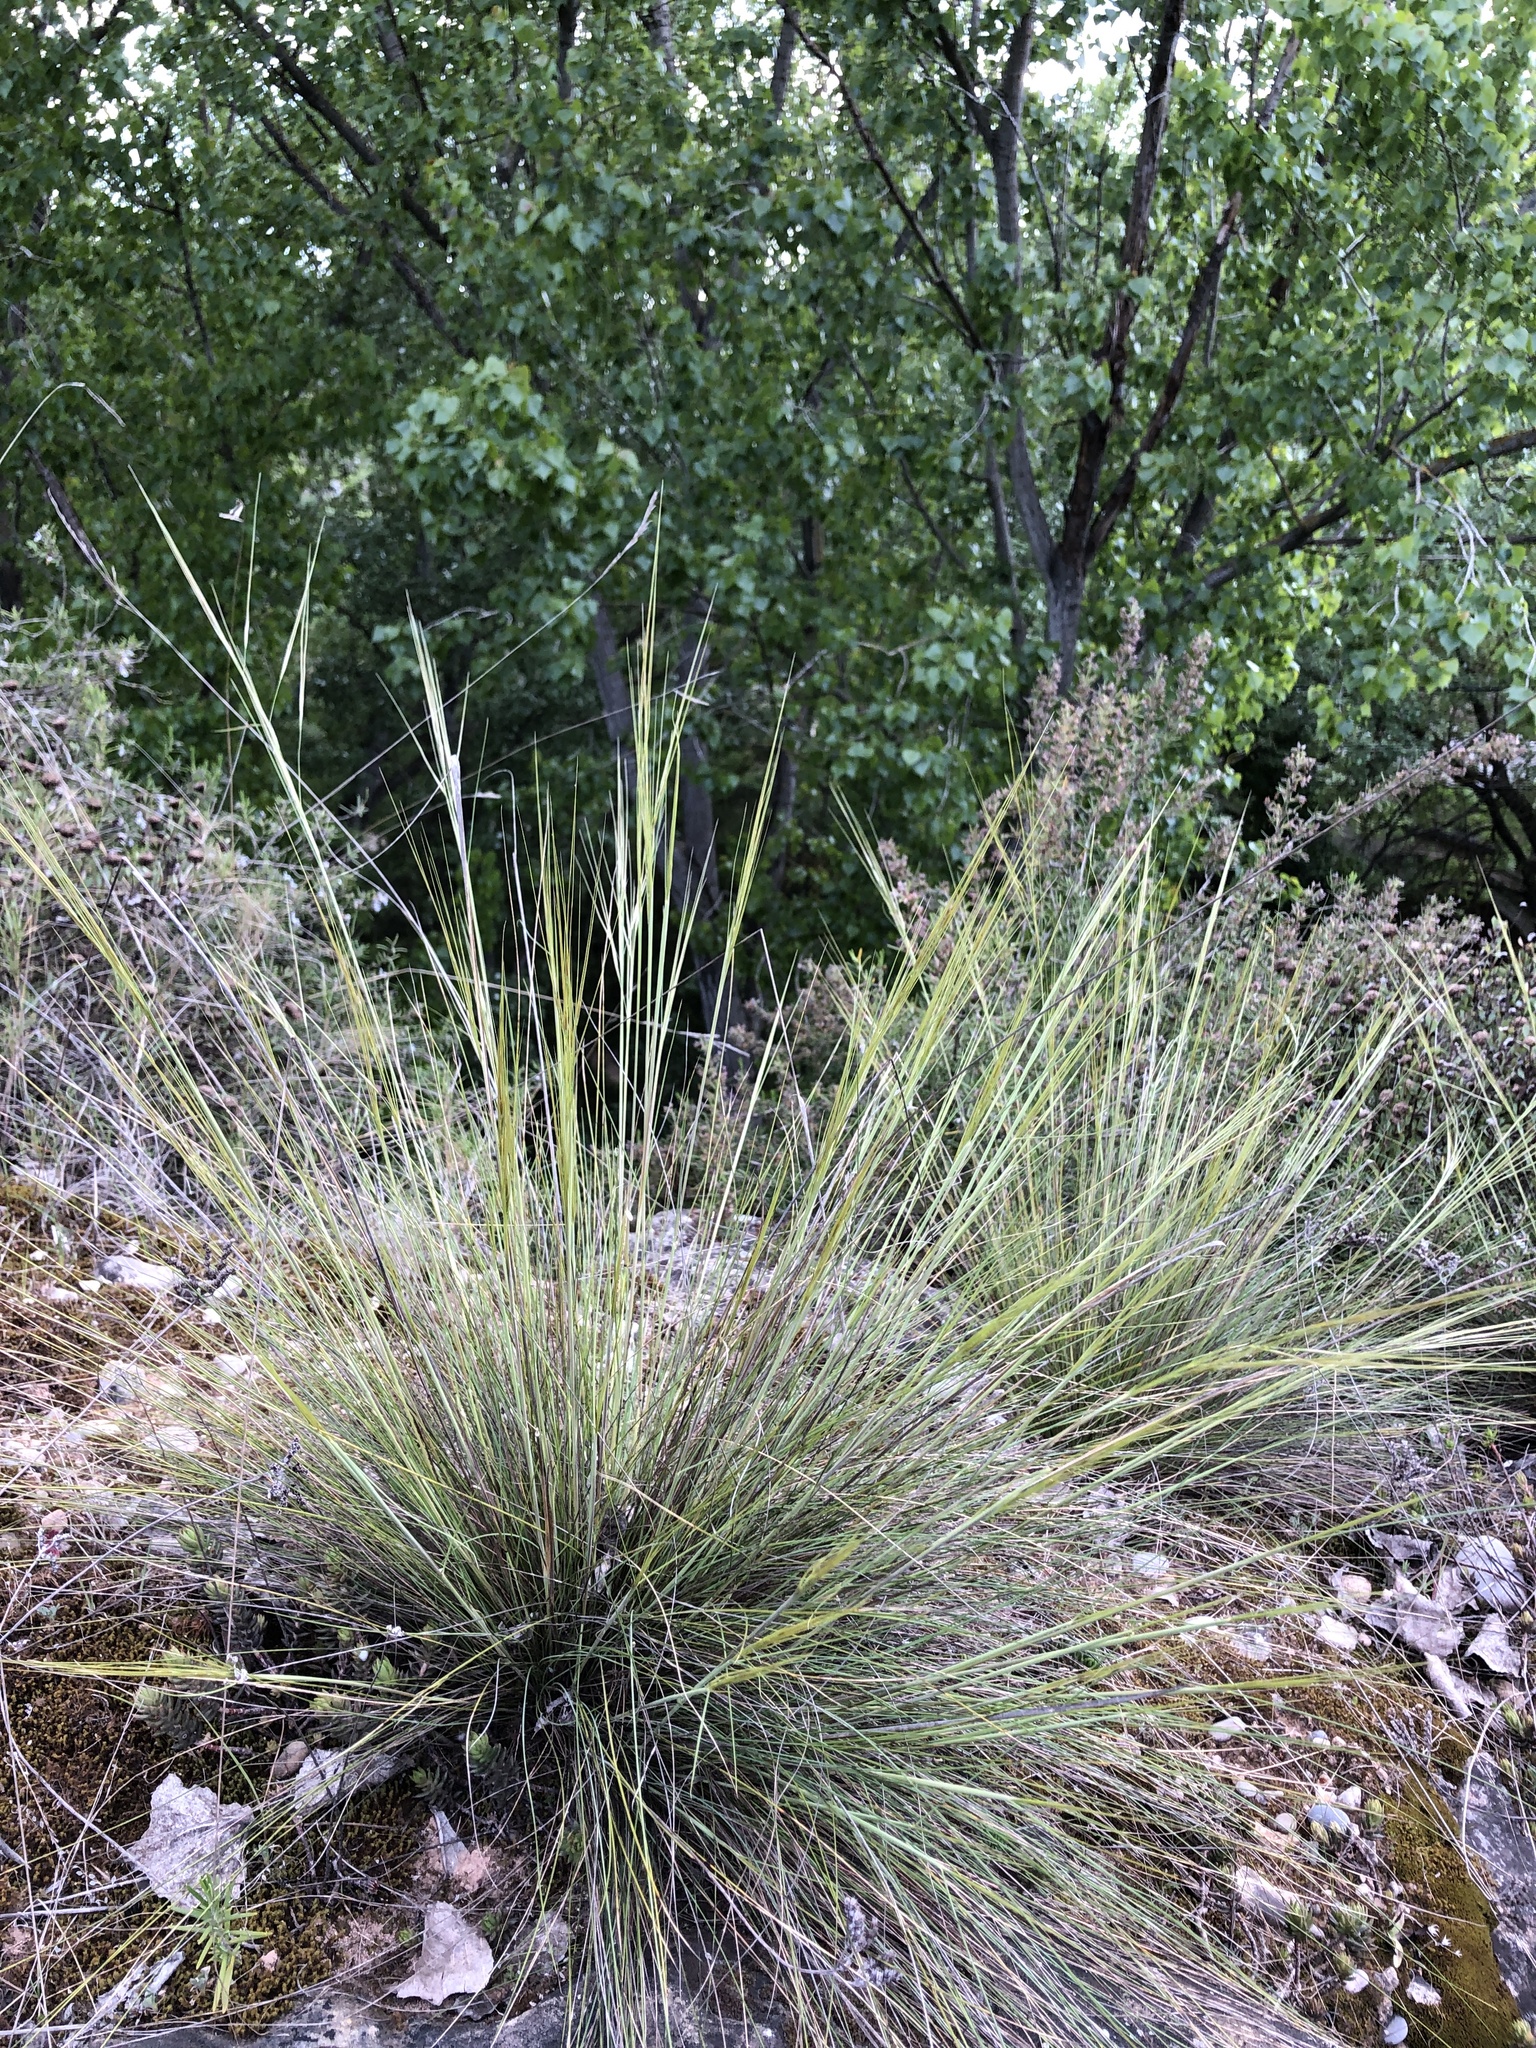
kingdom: Plantae
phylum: Tracheophyta
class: Liliopsida
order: Poales
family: Poaceae
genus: Stipa
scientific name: Stipa juncea
